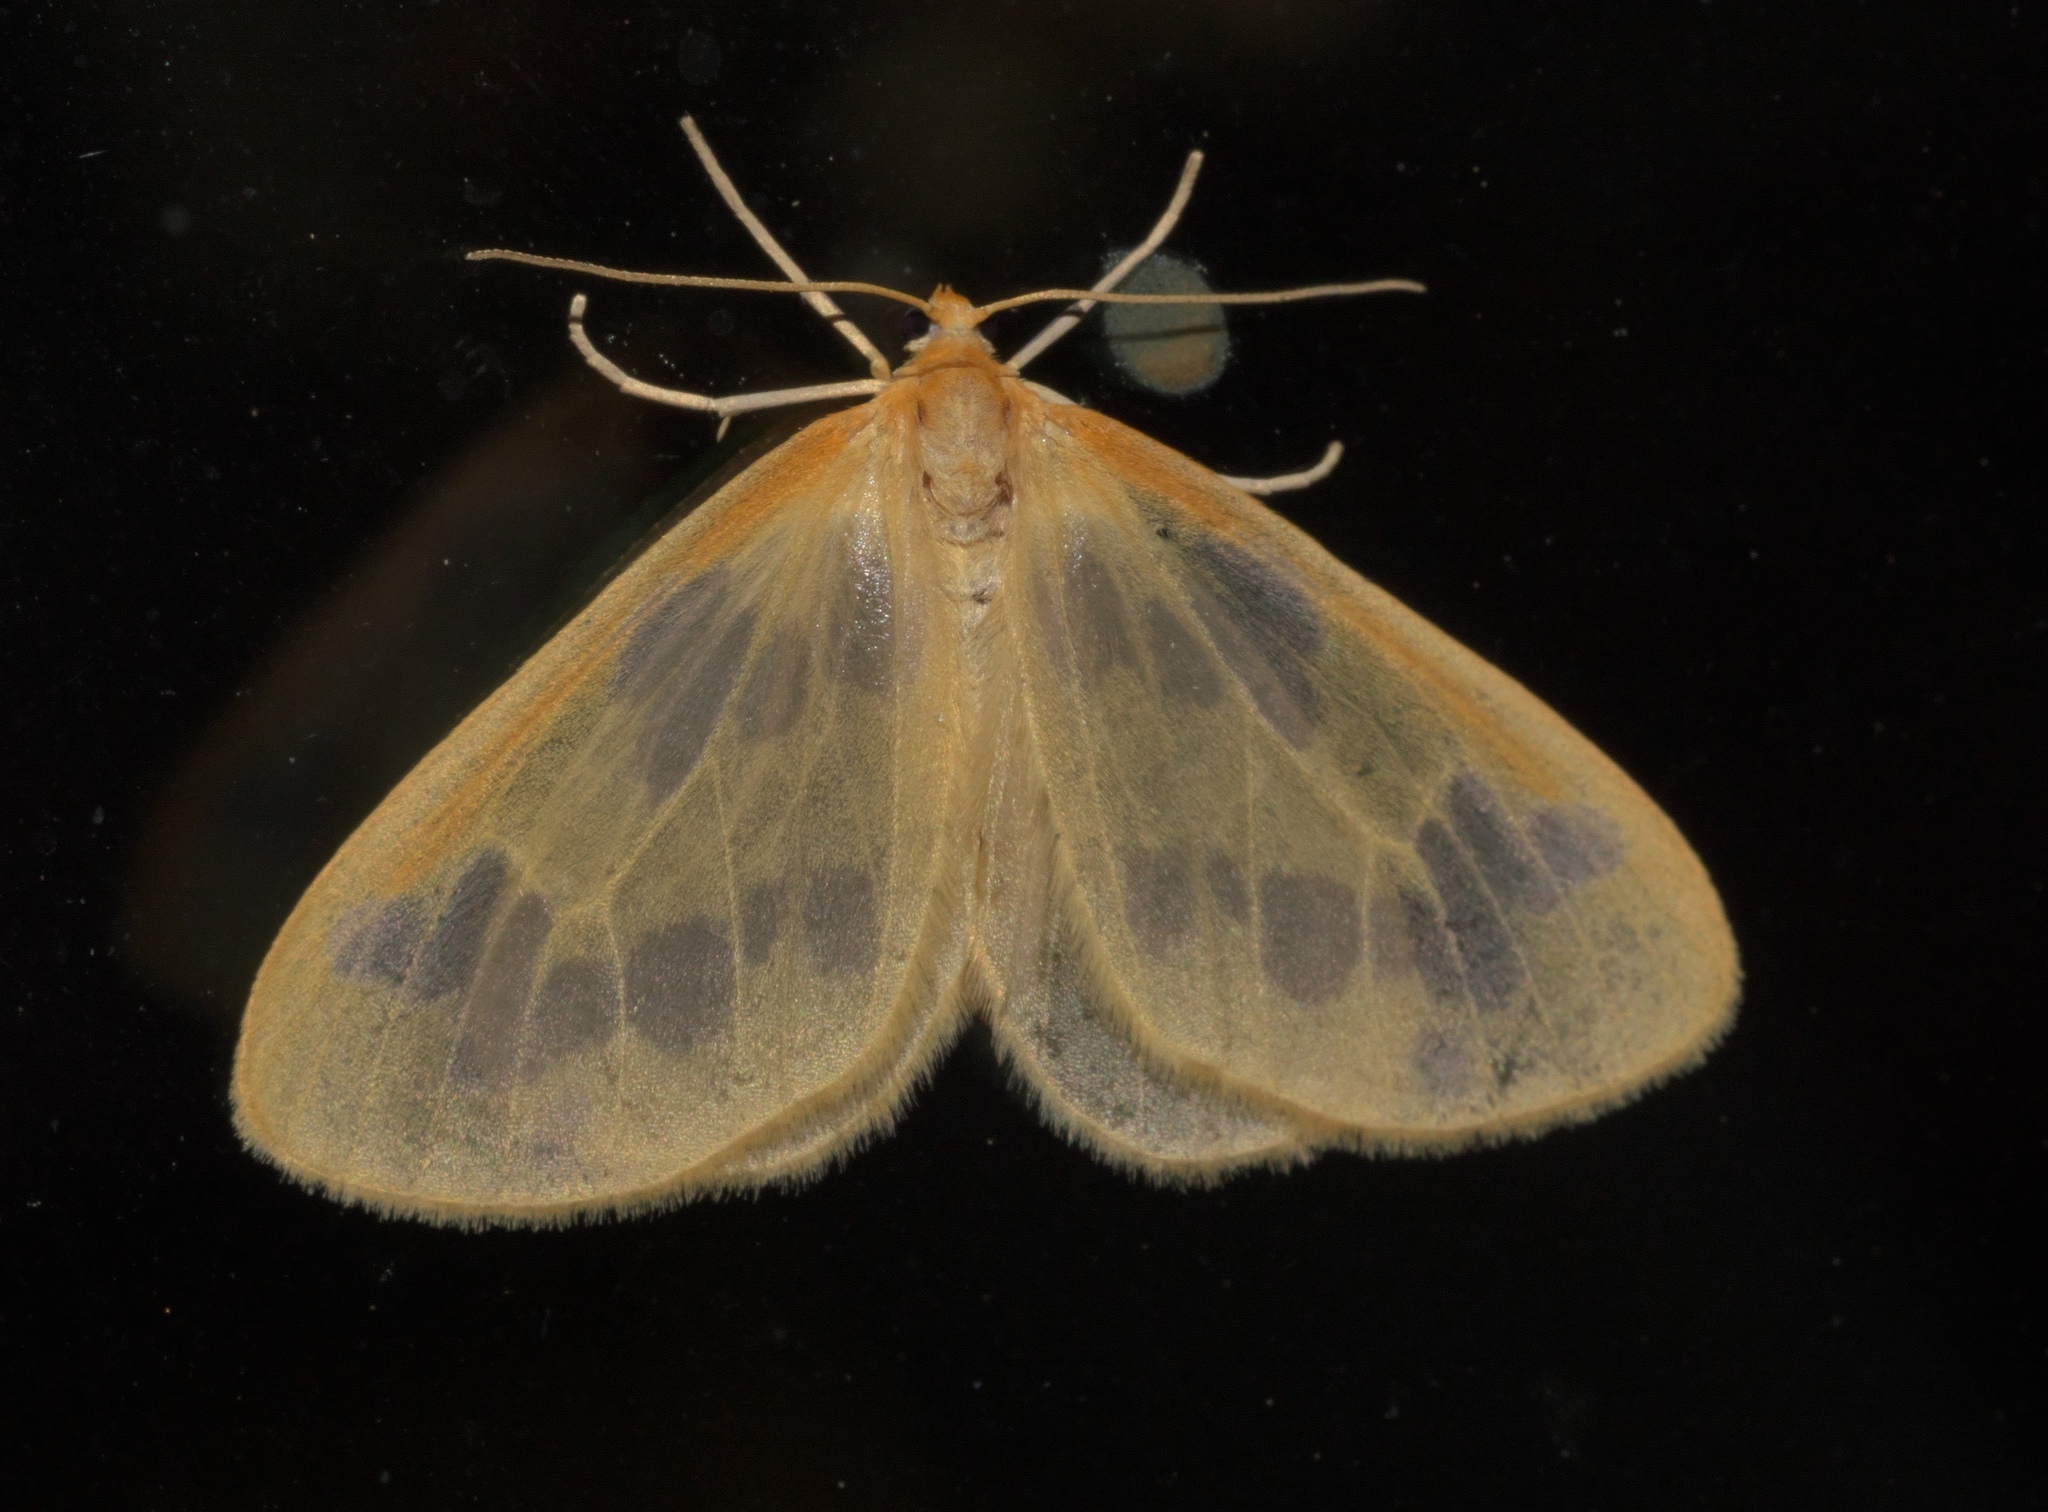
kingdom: Animalia
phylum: Arthropoda
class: Insecta
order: Lepidoptera
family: Geometridae
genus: Eubaphe
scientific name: Eubaphe mendica
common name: Beggar
